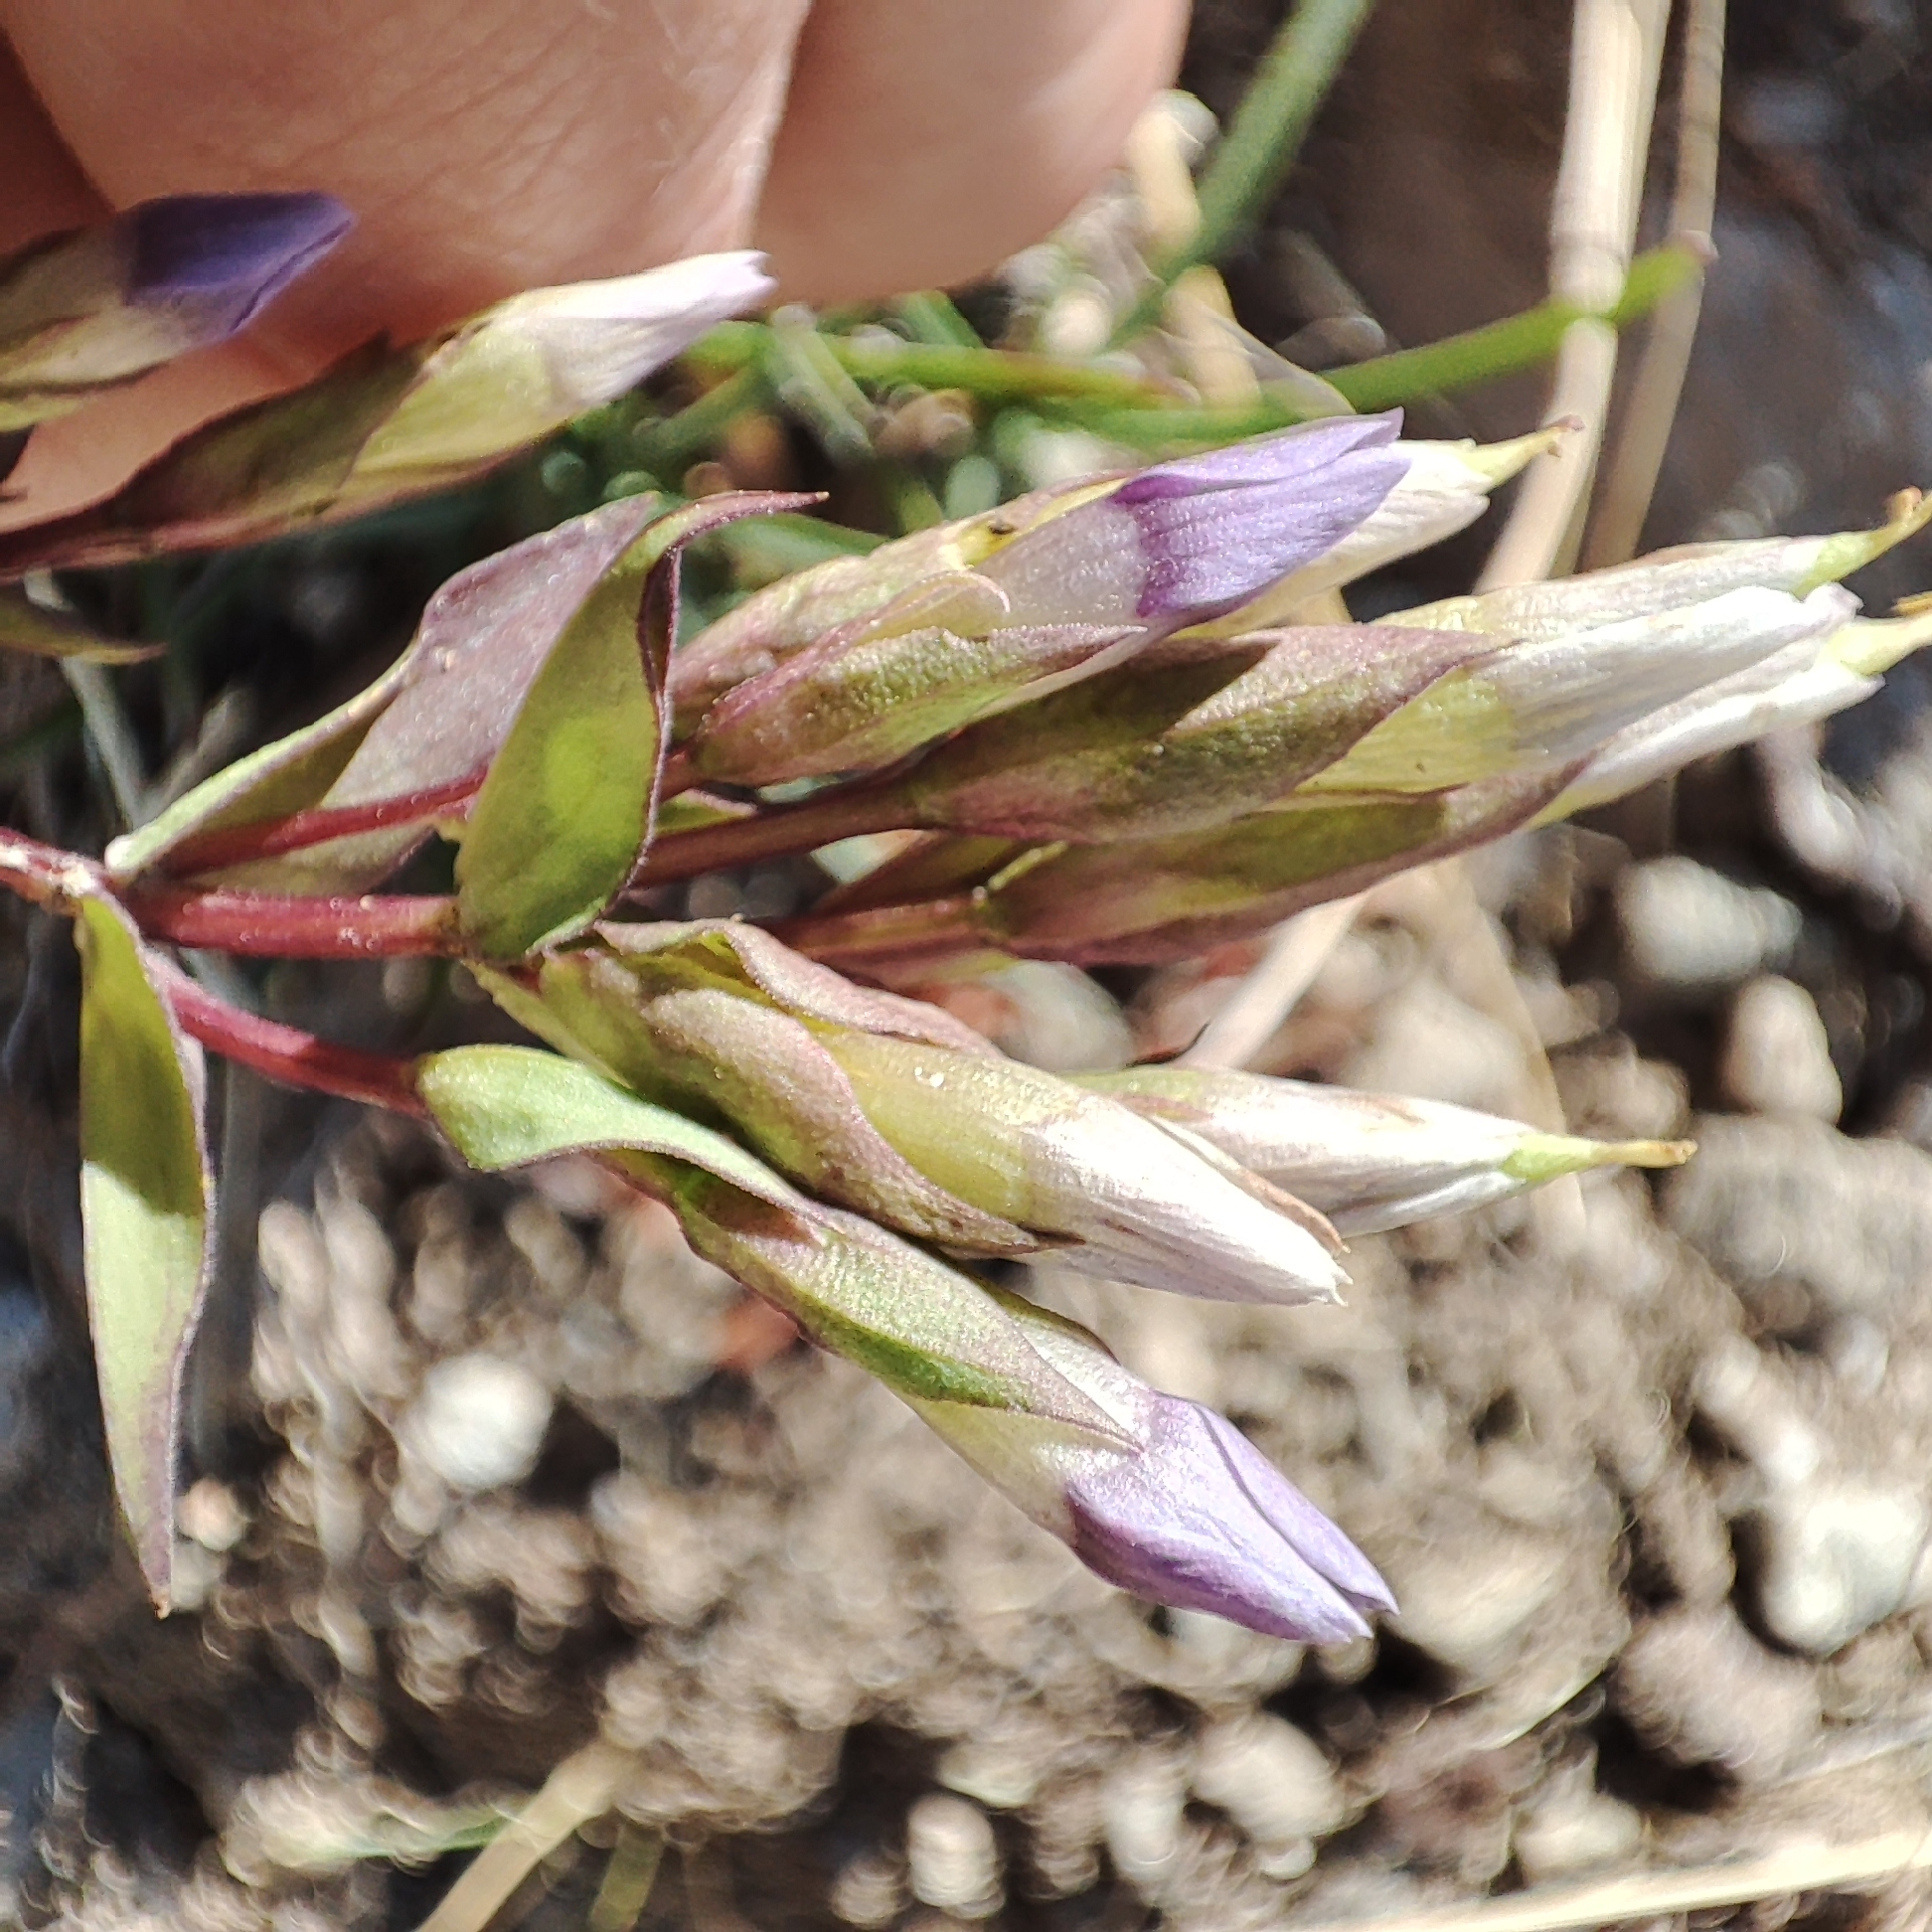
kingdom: Plantae
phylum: Tracheophyta
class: Magnoliopsida
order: Gentianales
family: Gentianaceae
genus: Gentianella
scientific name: Gentianella campestris
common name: Field gentian
